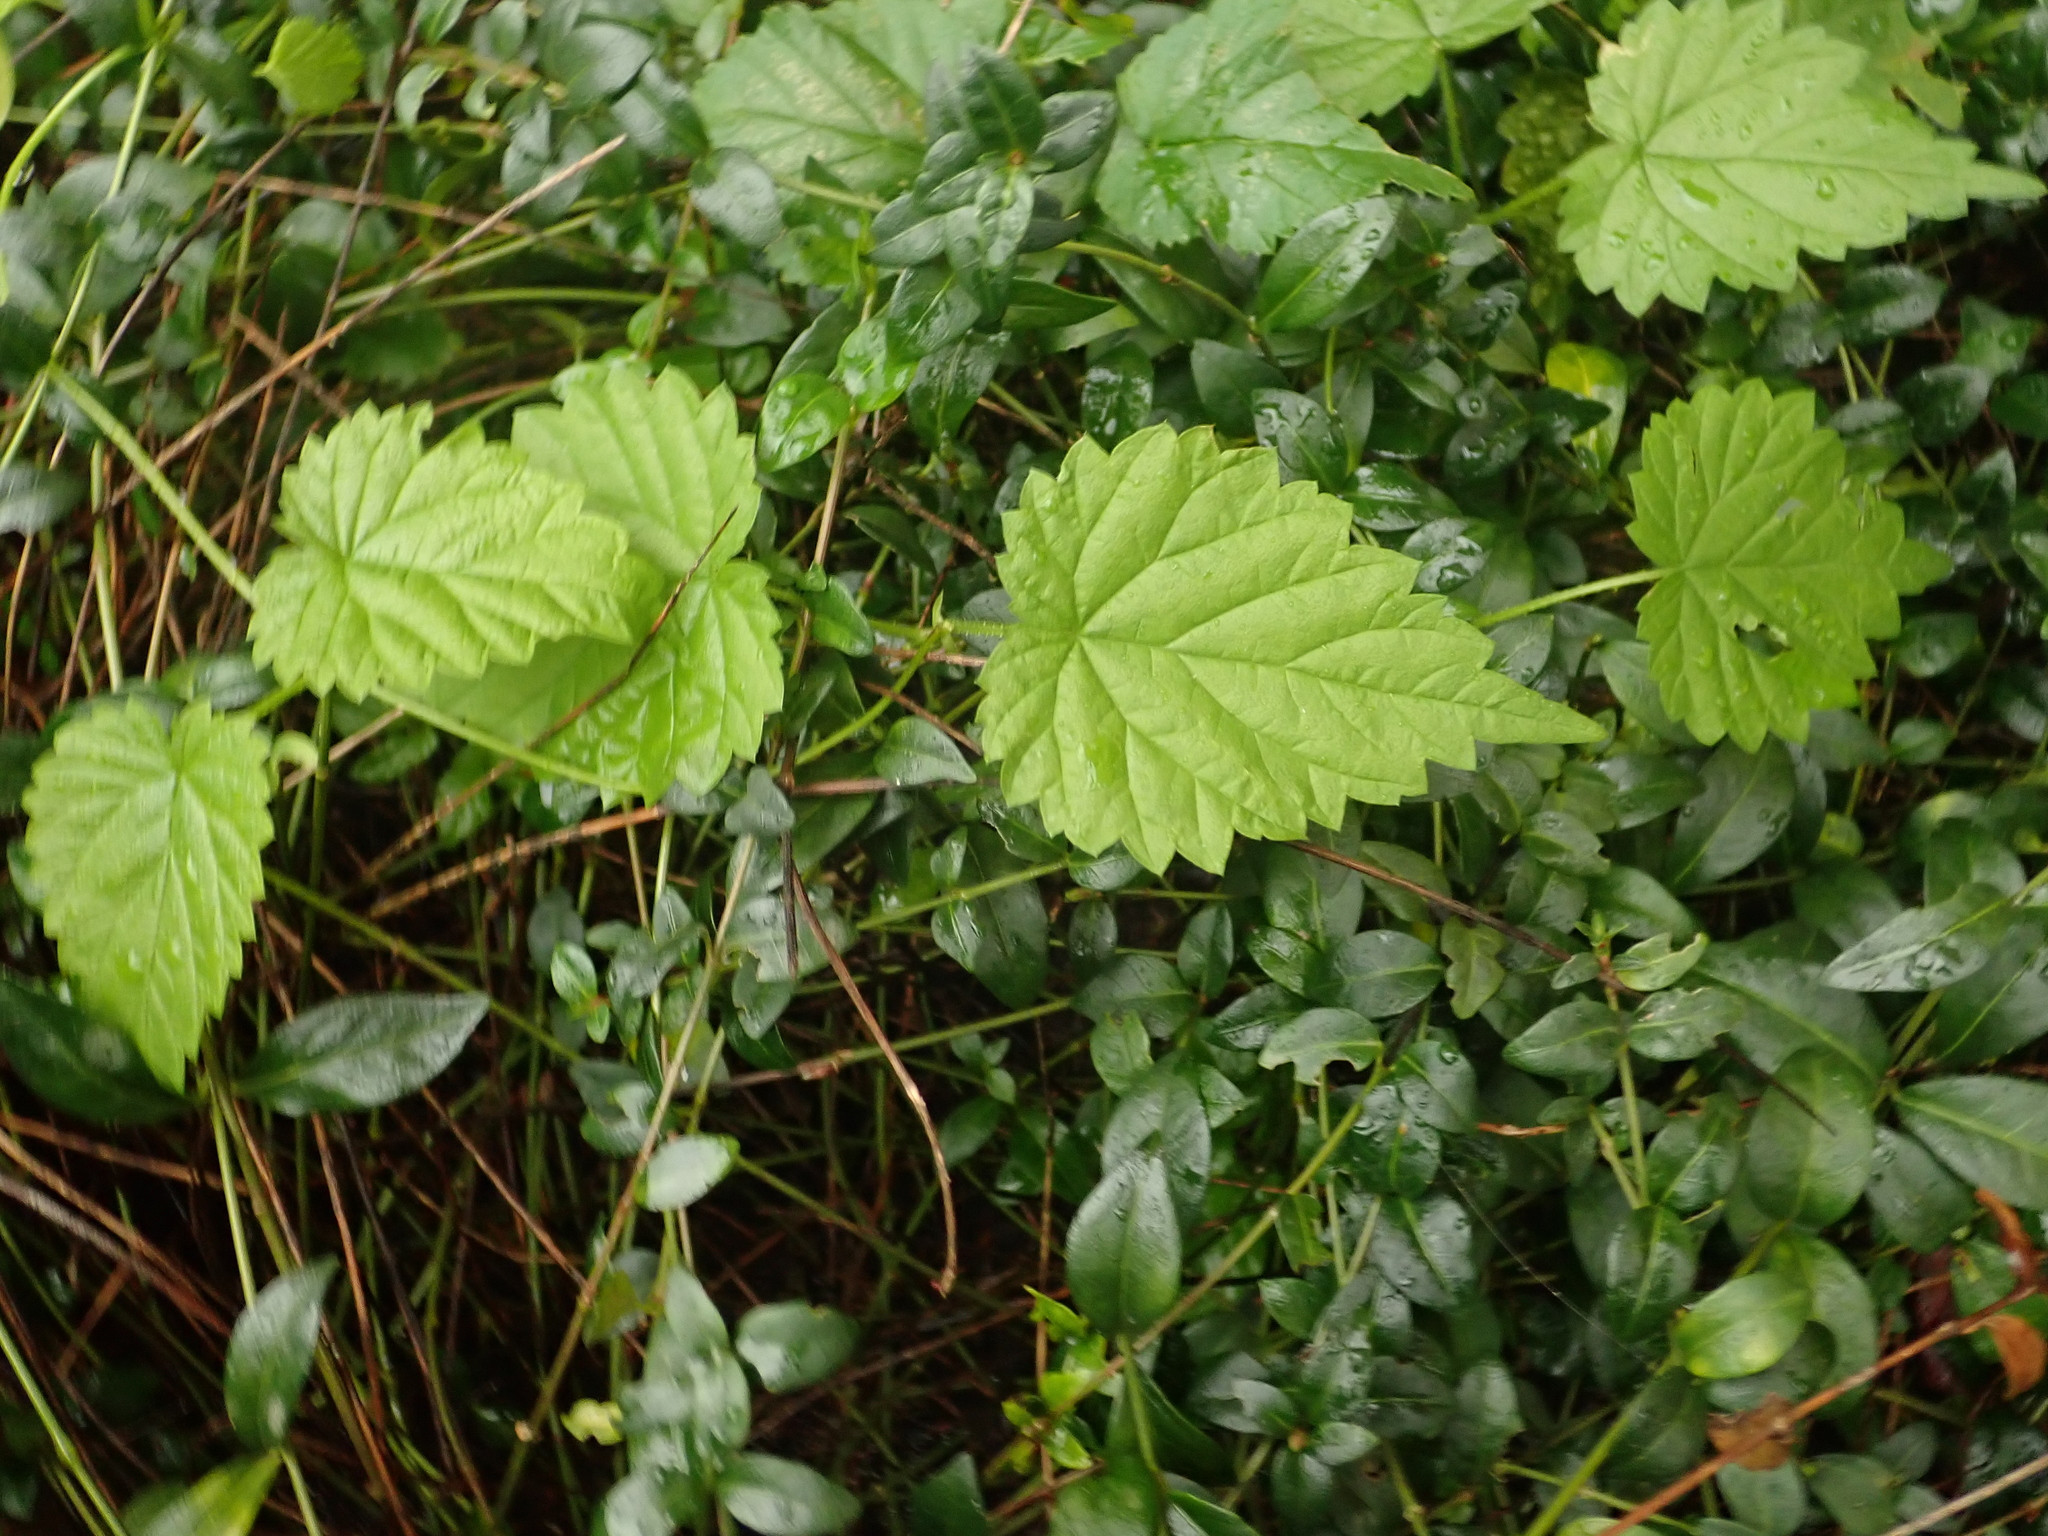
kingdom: Plantae
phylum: Tracheophyta
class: Magnoliopsida
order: Rosales
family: Cannabaceae
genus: Humulus
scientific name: Humulus lupulus
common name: Hop
